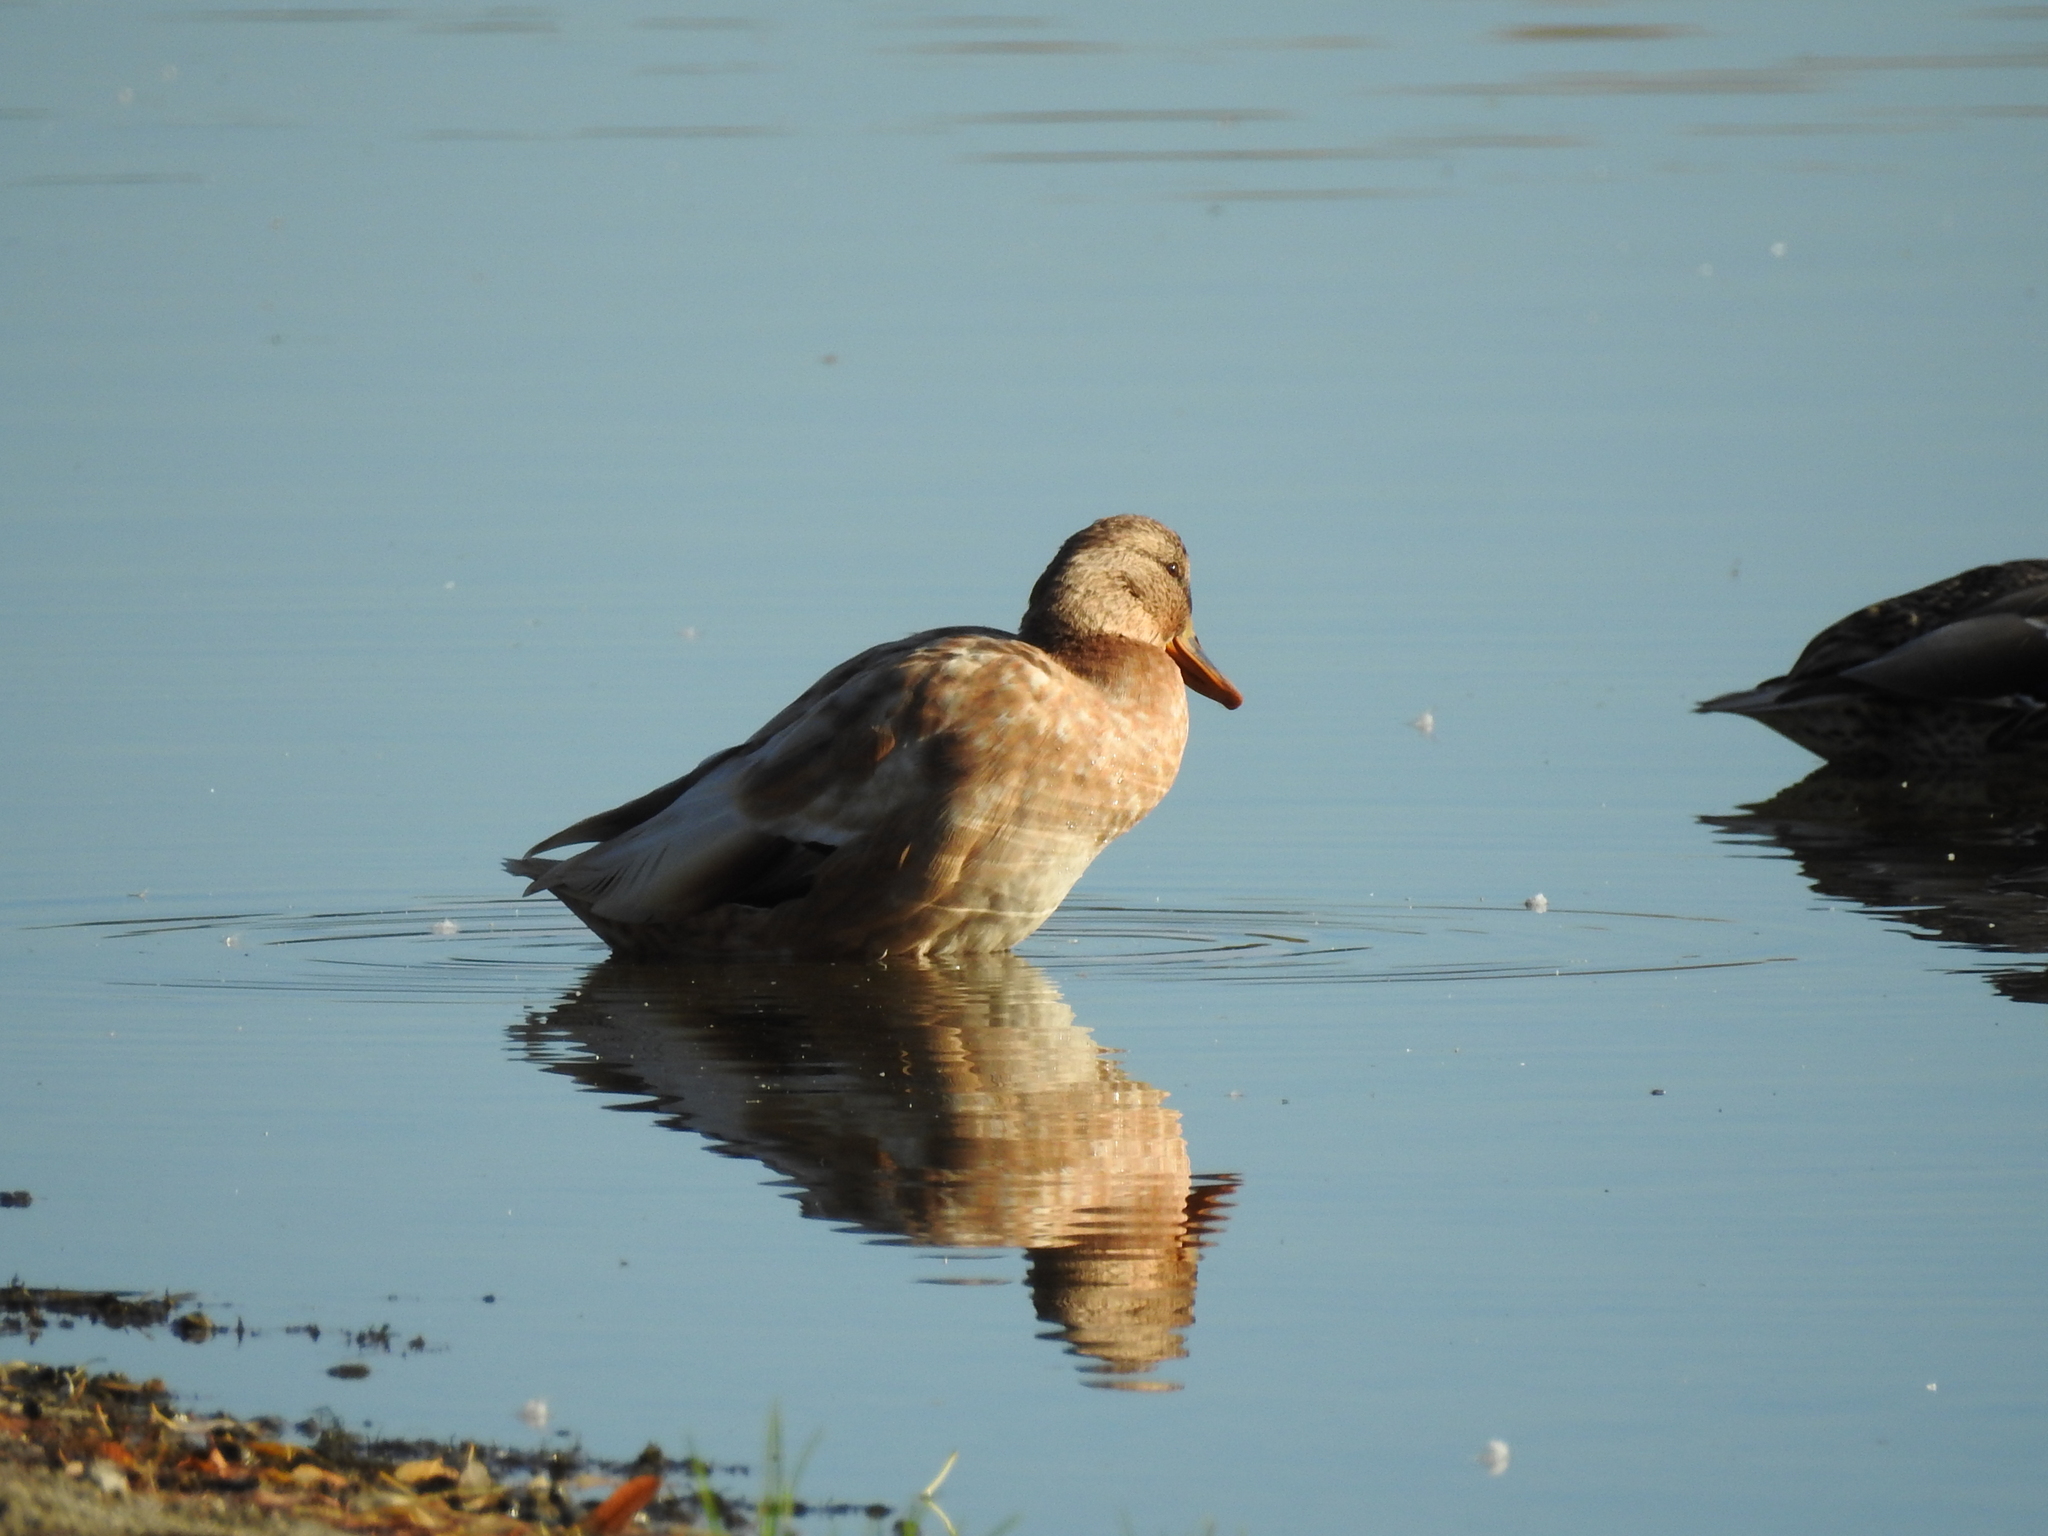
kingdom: Animalia
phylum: Chordata
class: Aves
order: Anseriformes
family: Anatidae
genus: Anas
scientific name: Anas platyrhynchos
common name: Mallard
